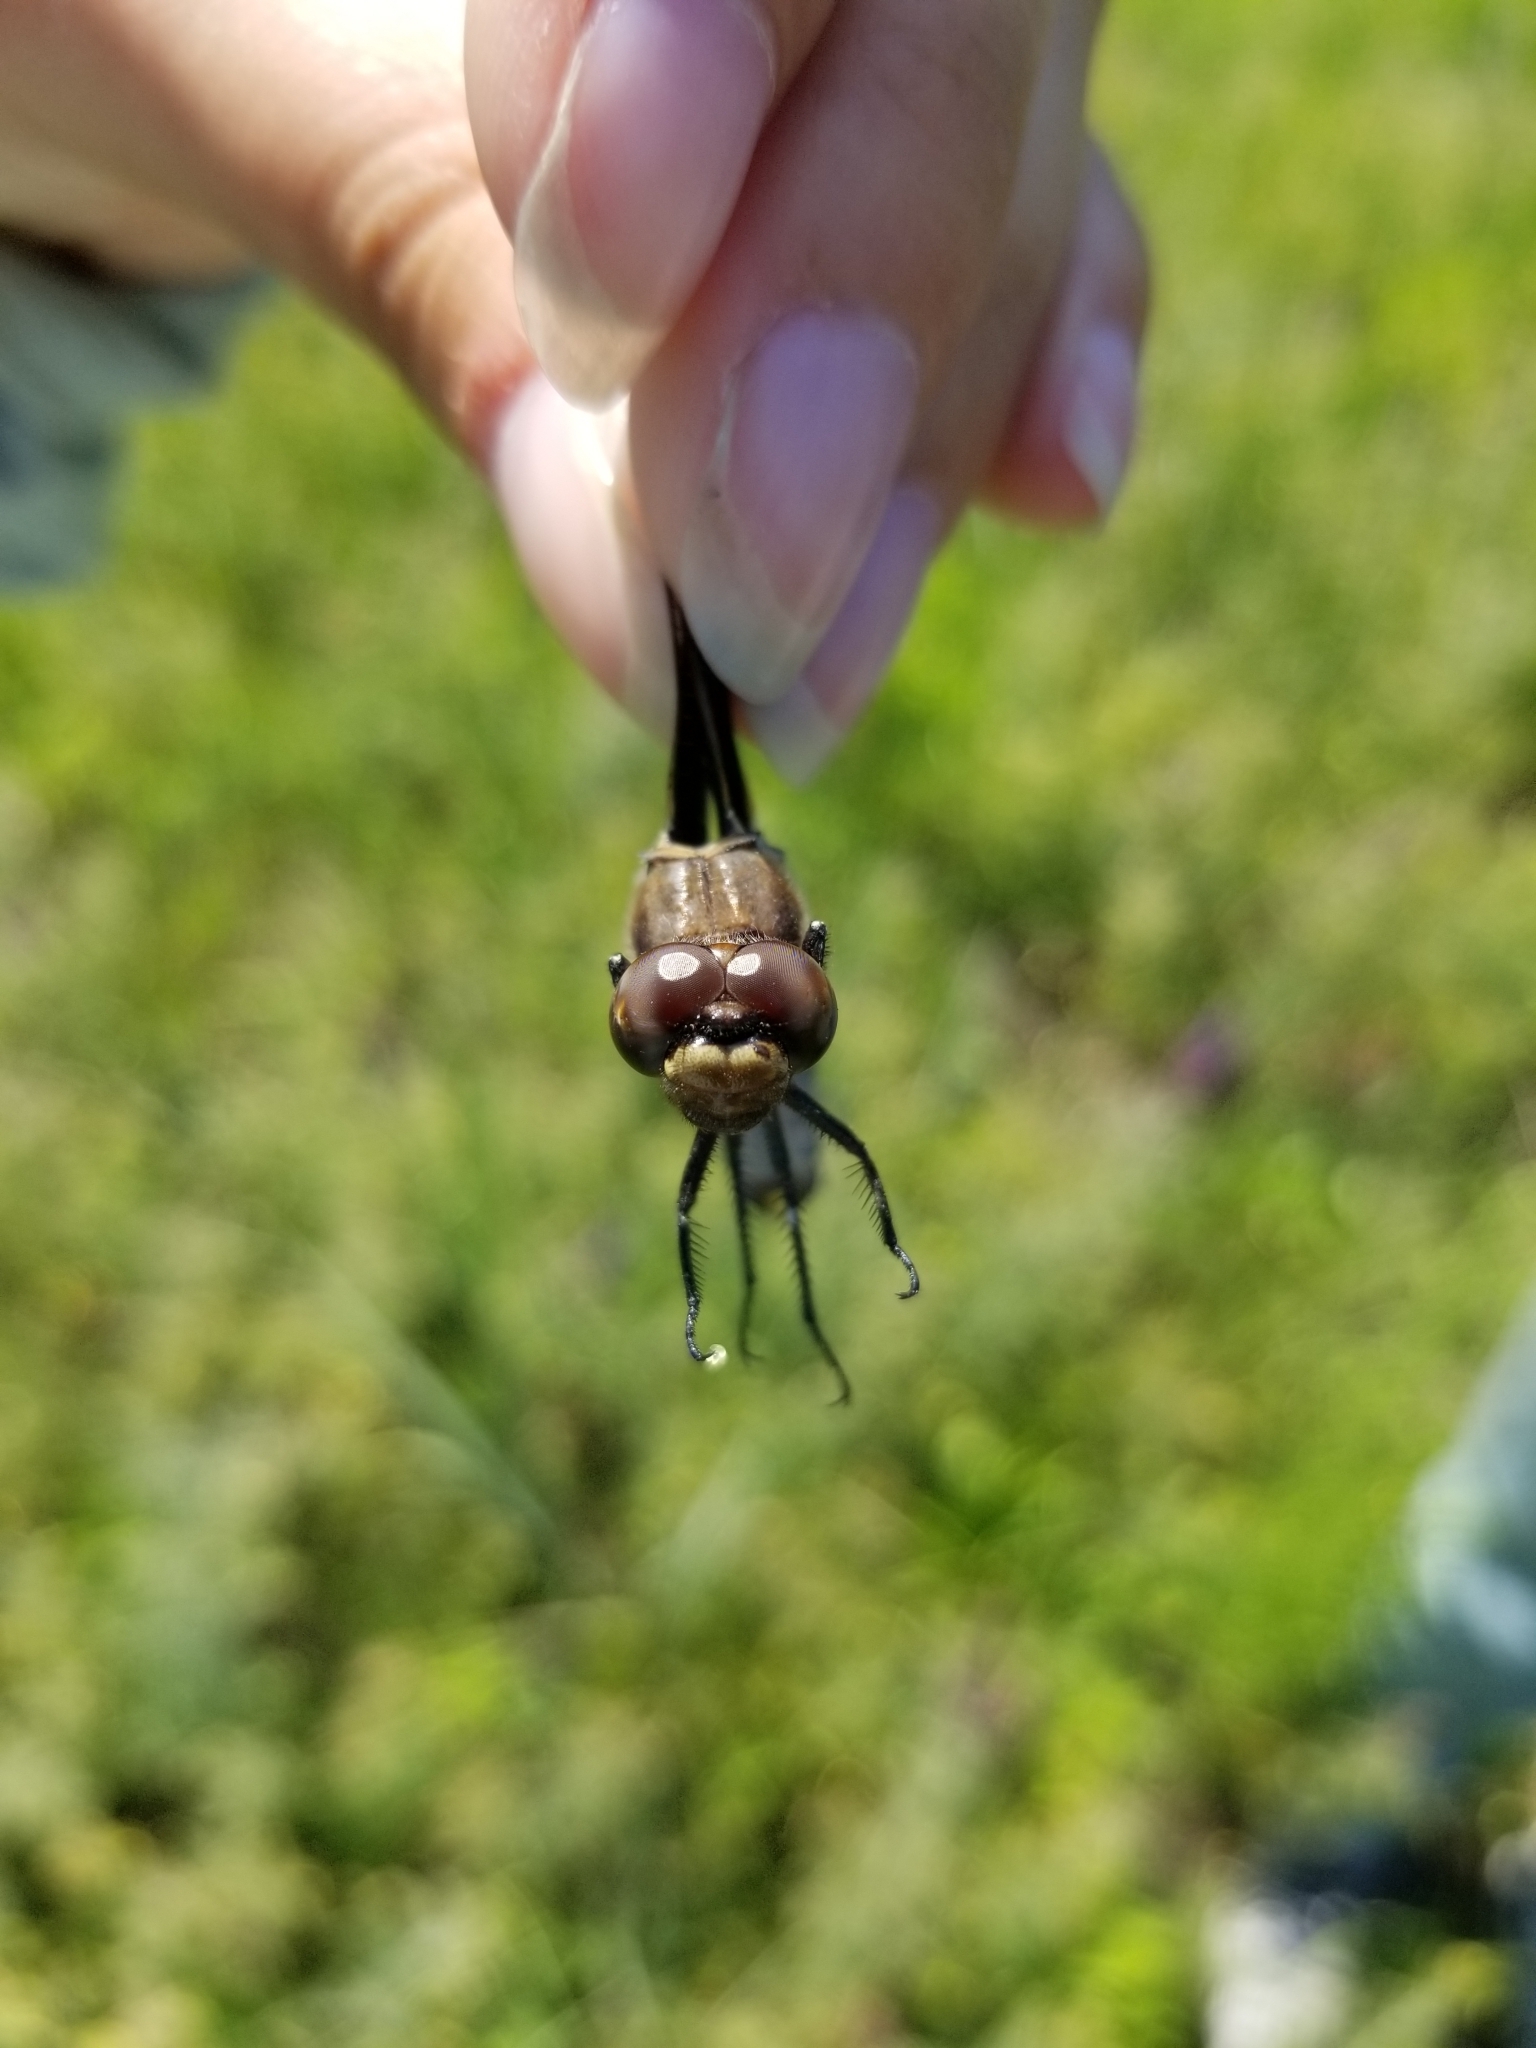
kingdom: Animalia
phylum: Arthropoda
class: Insecta
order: Odonata
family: Libellulidae
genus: Plathemis
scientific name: Plathemis lydia
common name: Common whitetail
